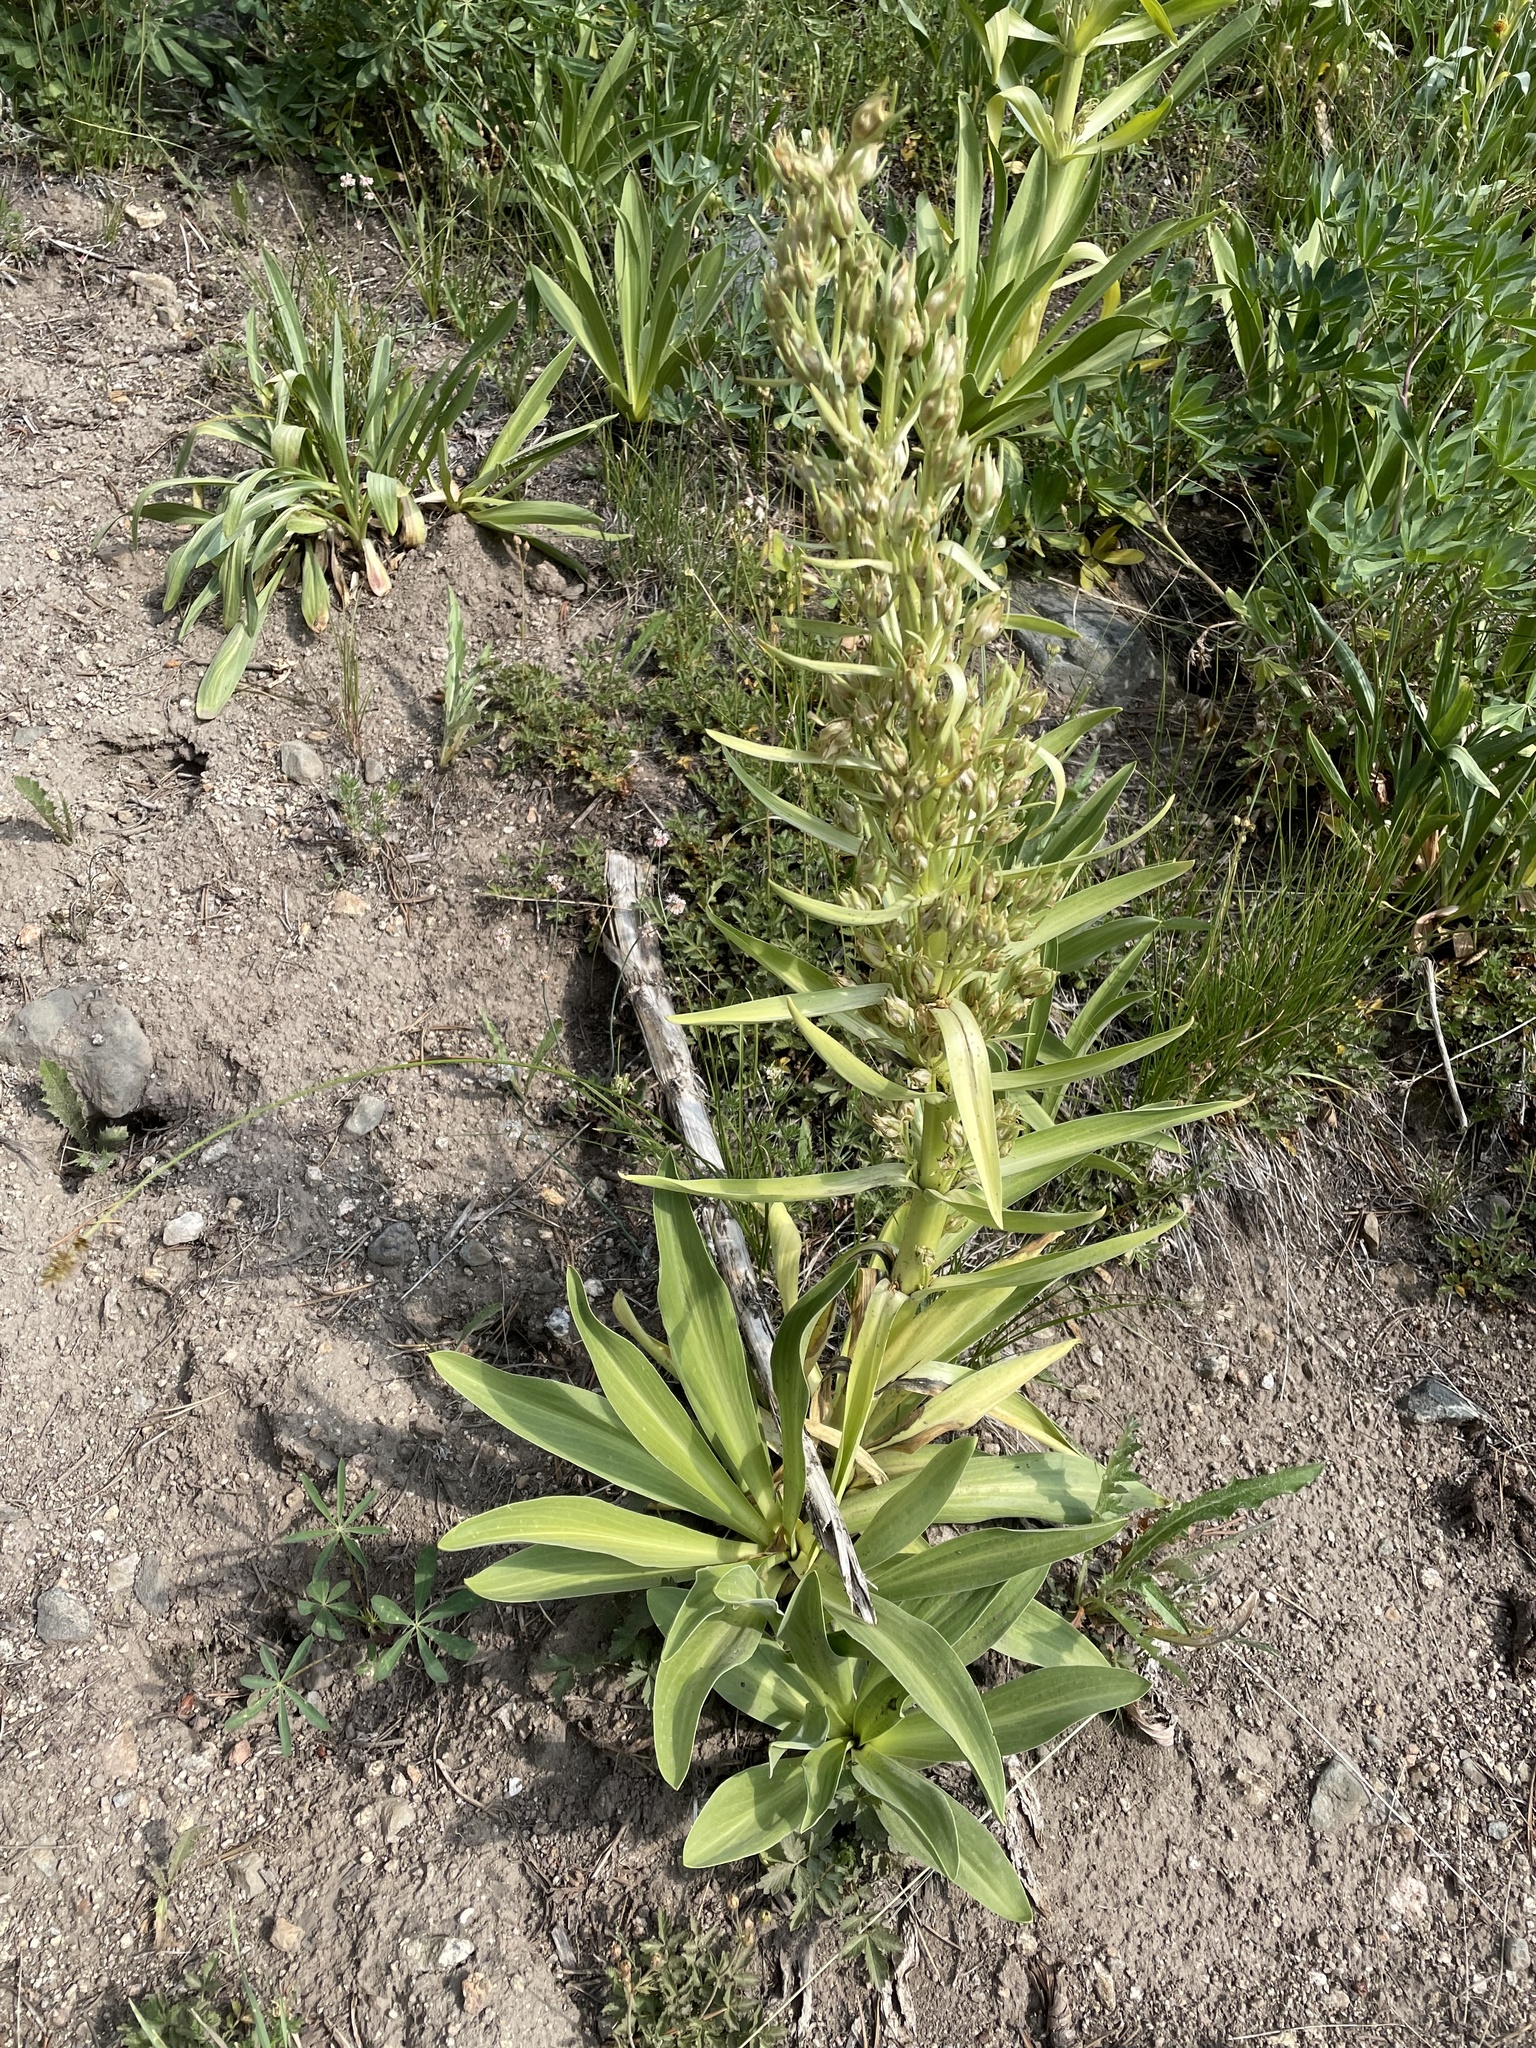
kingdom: Plantae
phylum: Tracheophyta
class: Magnoliopsida
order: Gentianales
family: Gentianaceae
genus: Frasera
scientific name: Frasera speciosa
